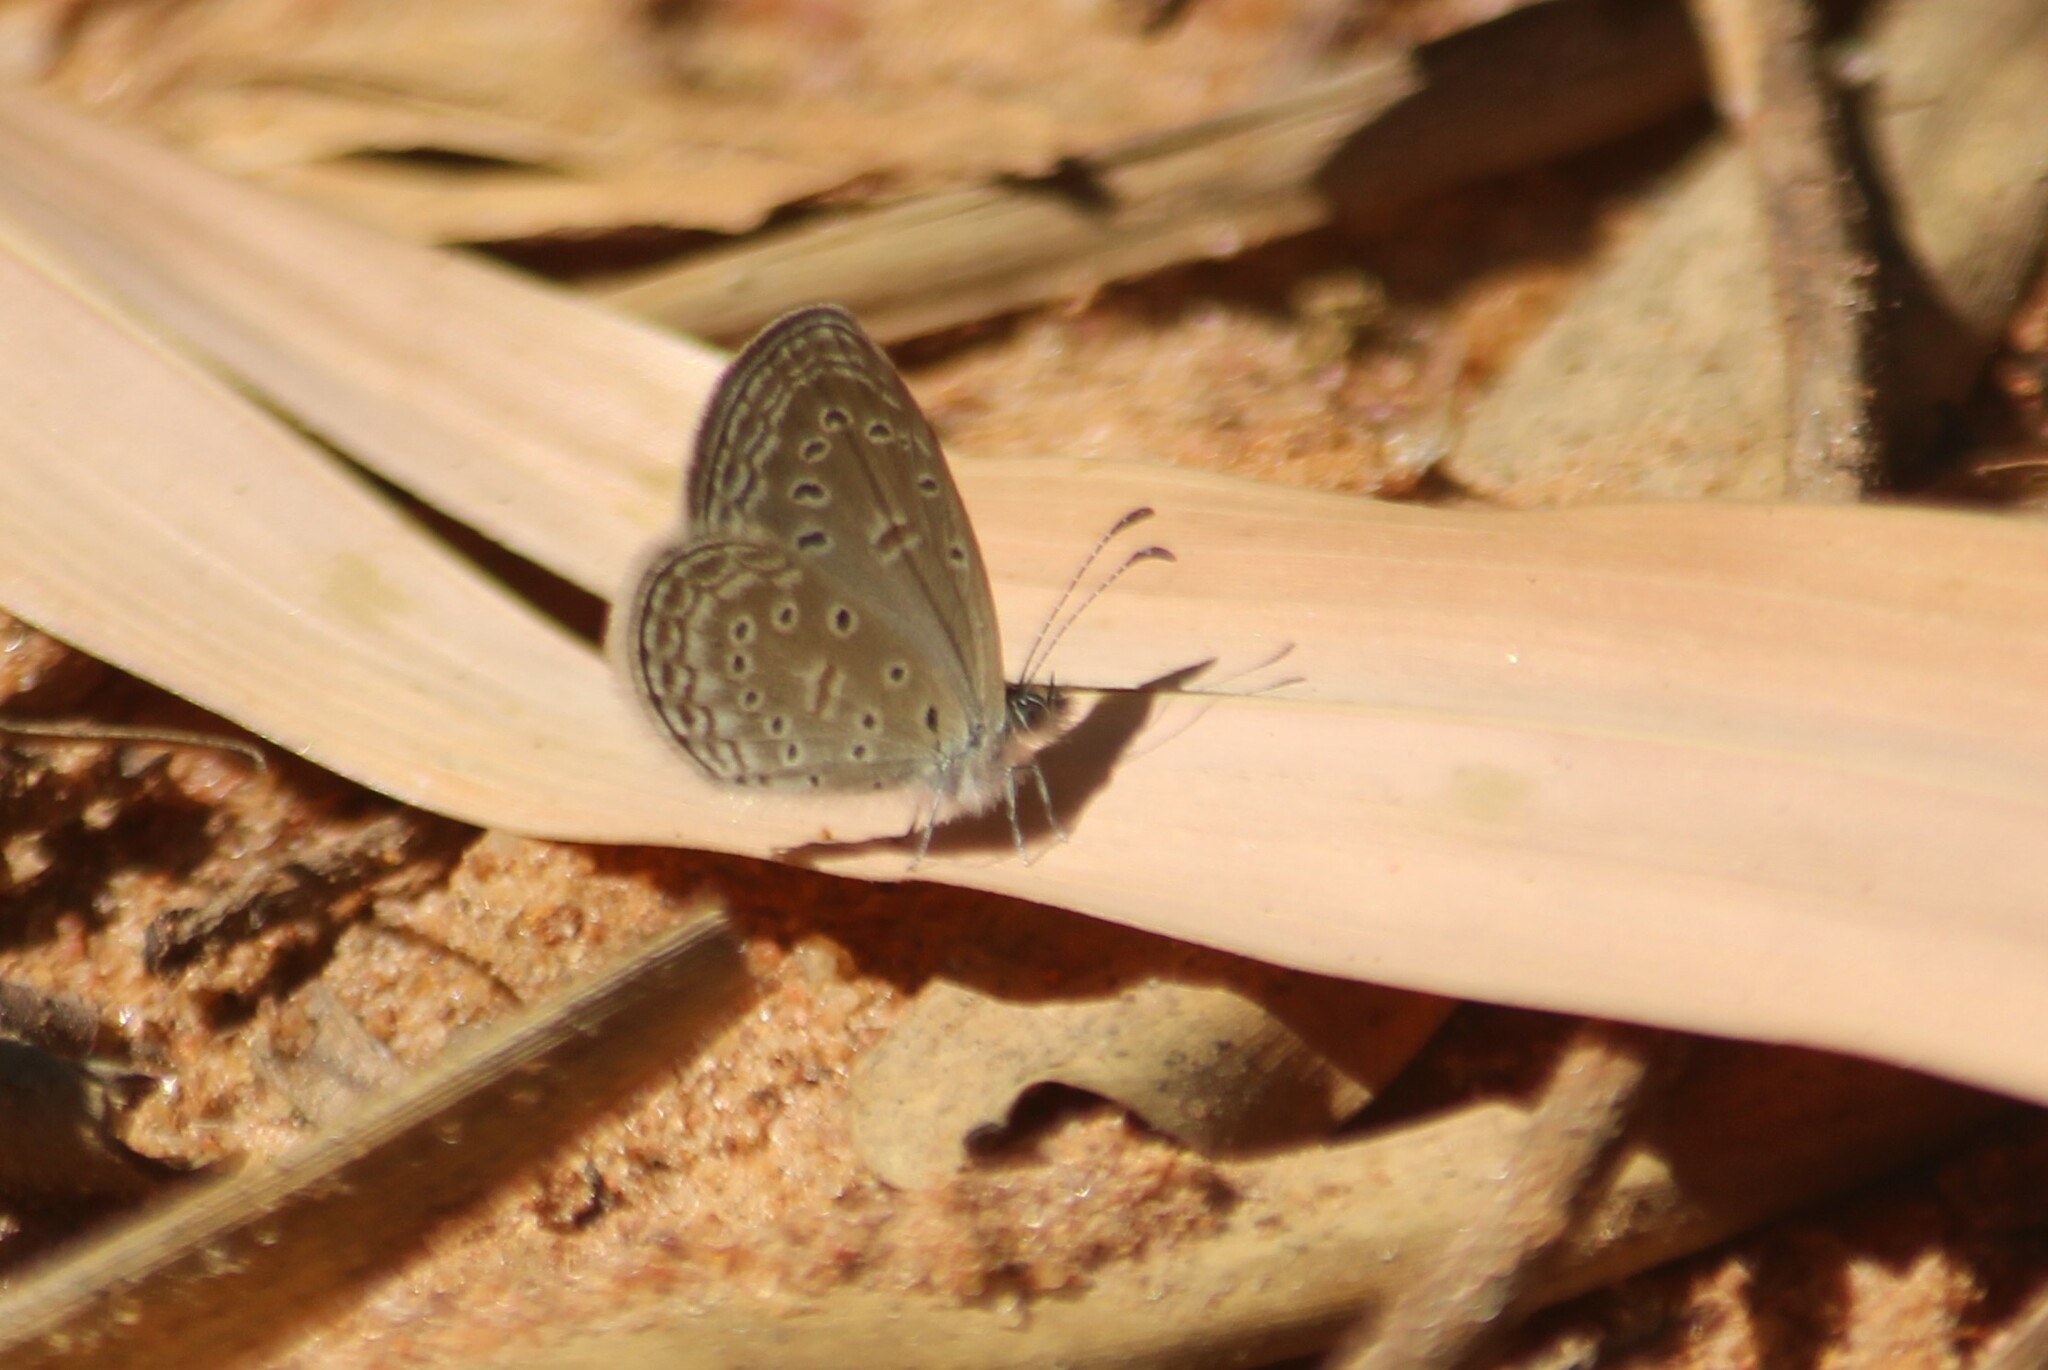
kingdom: Animalia
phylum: Arthropoda
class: Insecta
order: Lepidoptera
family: Lycaenidae
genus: Zizula
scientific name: Zizula hylax
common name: Gaika blue
